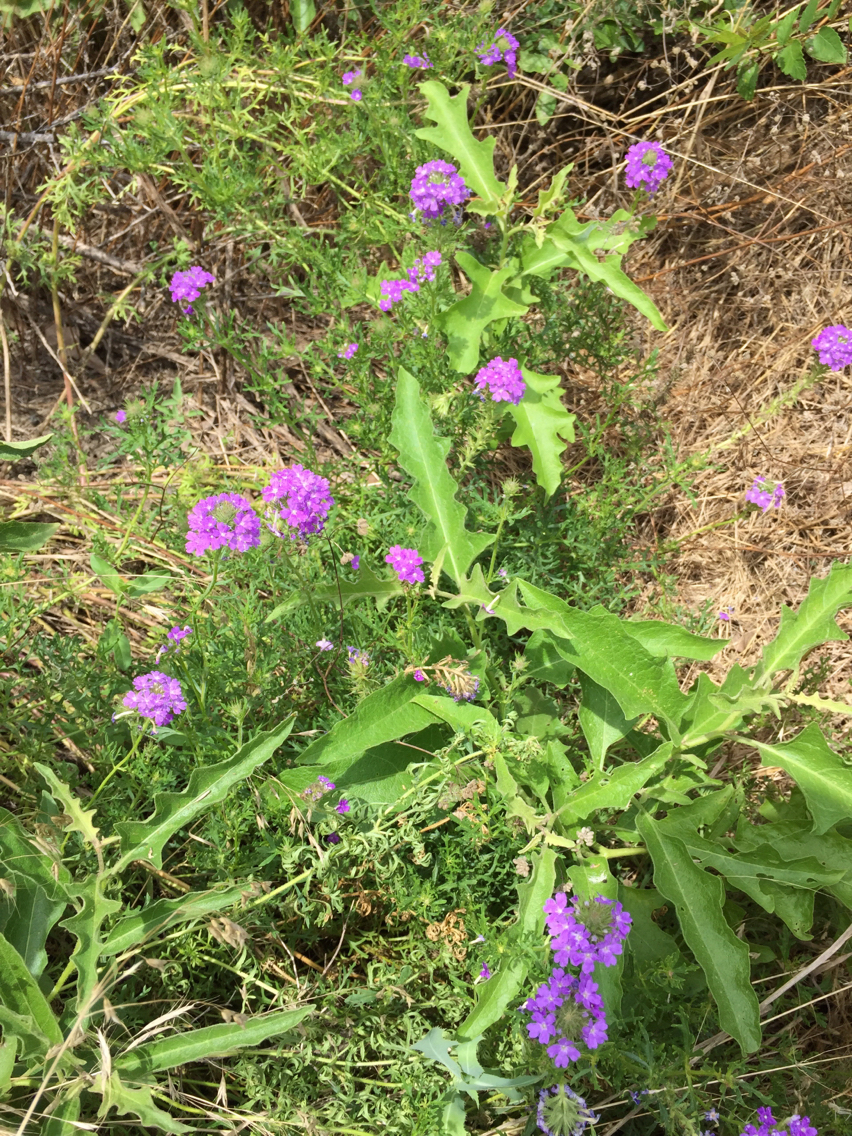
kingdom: Plantae
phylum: Tracheophyta
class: Magnoliopsida
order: Lamiales
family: Verbenaceae
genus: Verbena
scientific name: Verbena bipinnatifida
